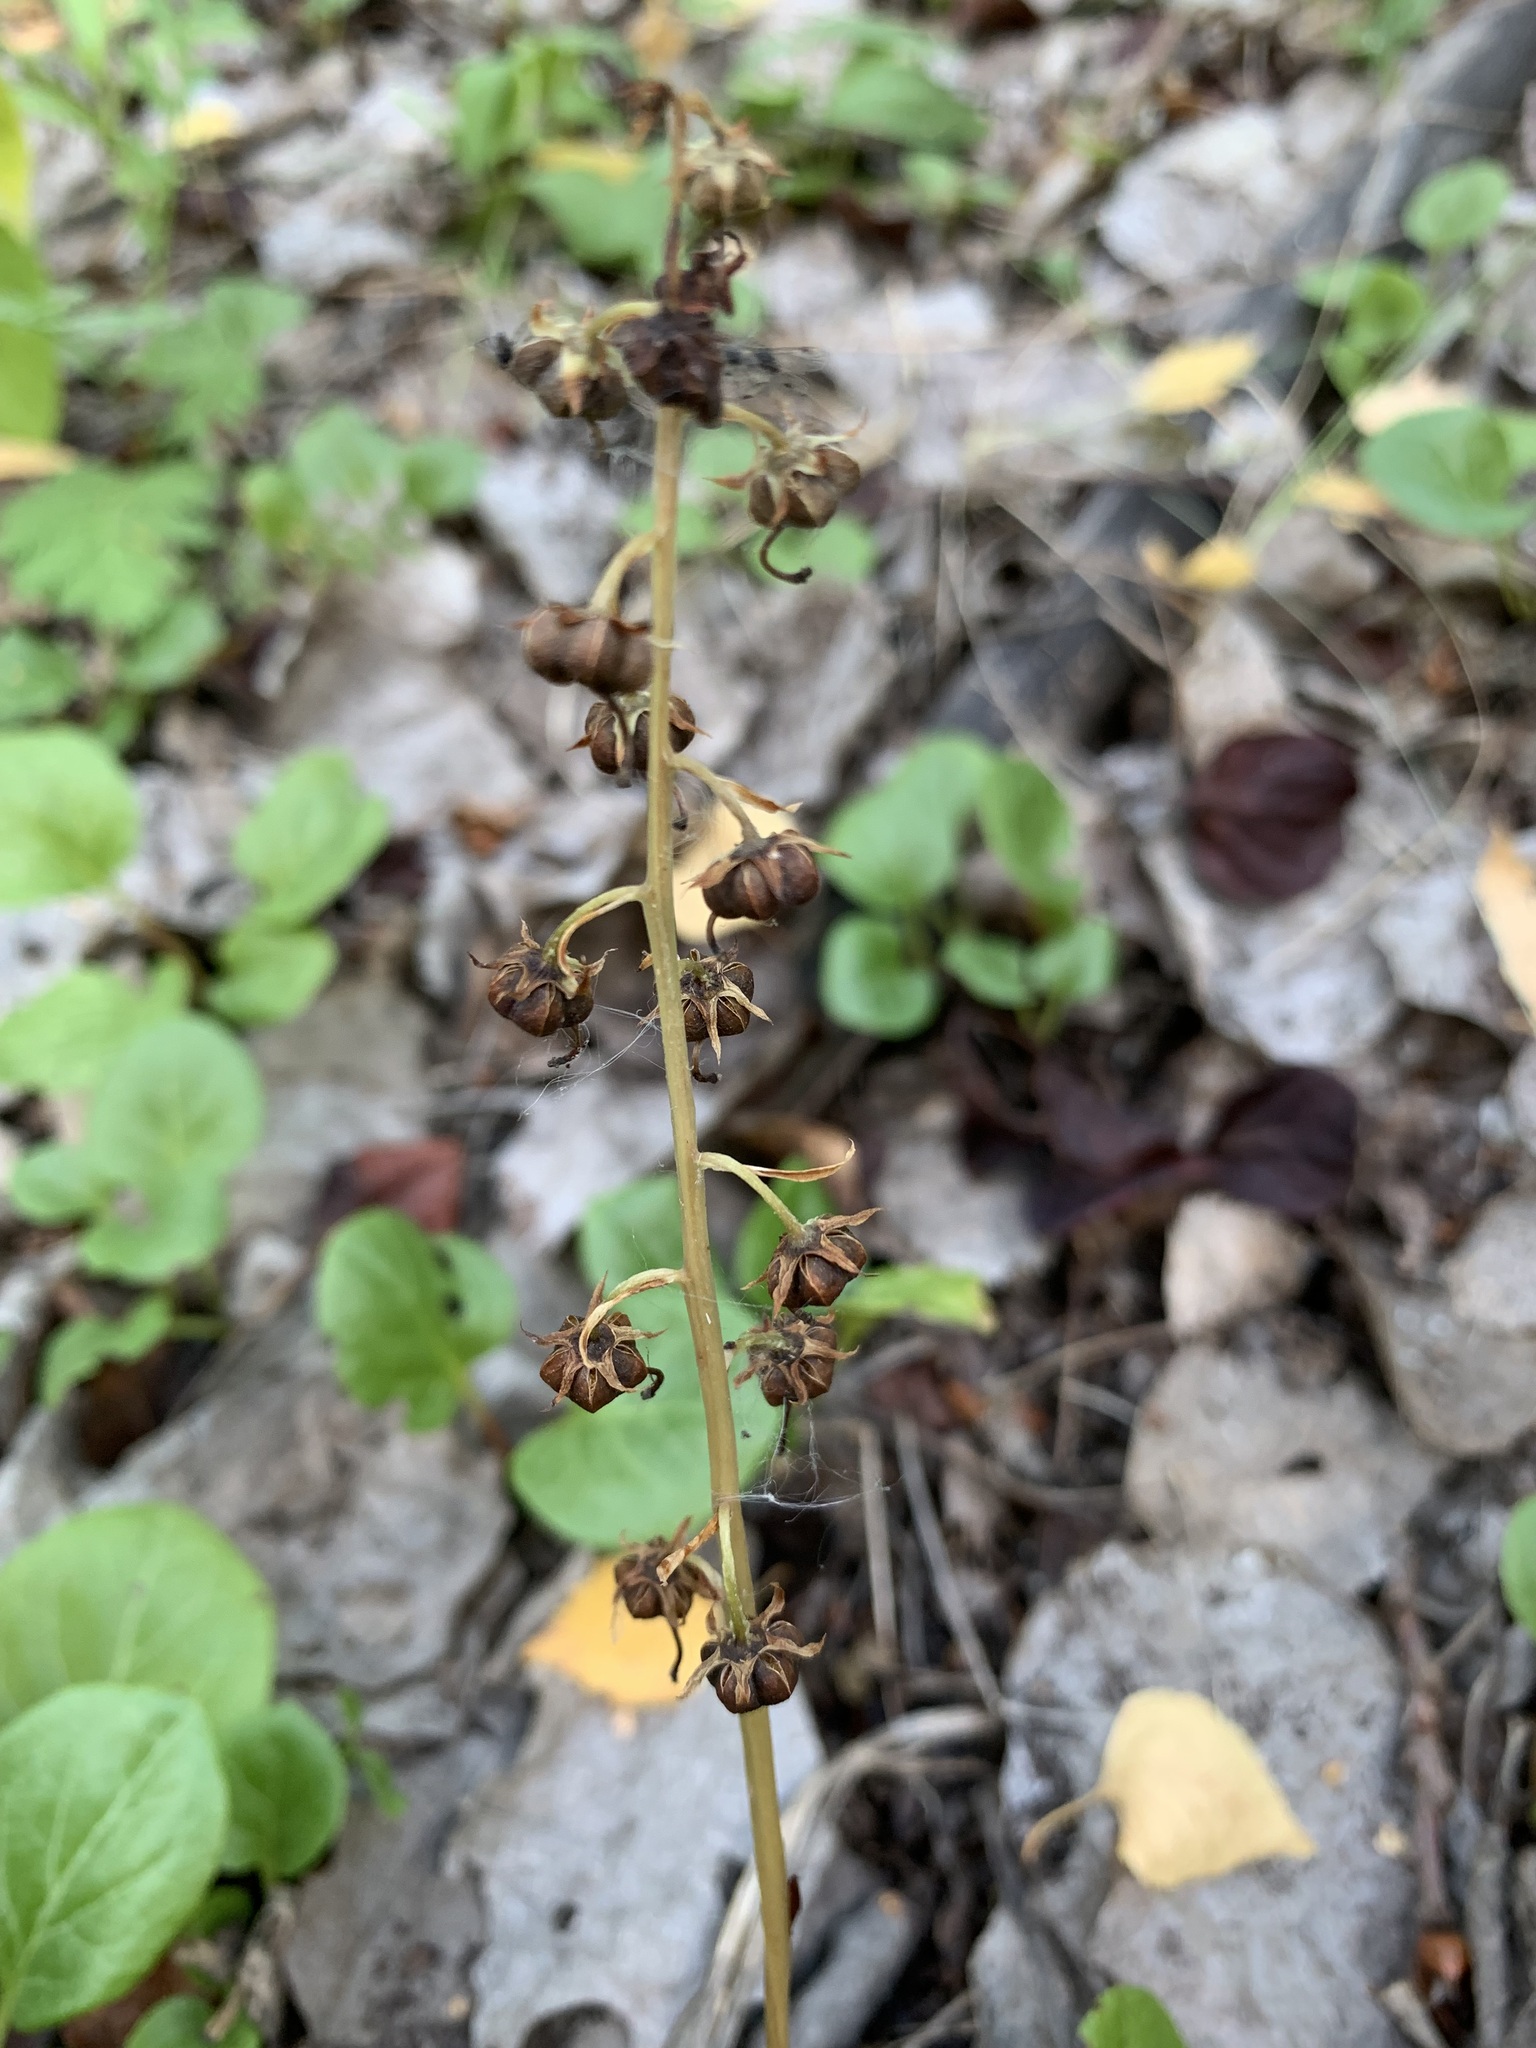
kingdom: Plantae
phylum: Tracheophyta
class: Magnoliopsida
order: Ericales
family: Ericaceae
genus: Pyrola
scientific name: Pyrola rotundifolia
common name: Round-leaved wintergreen
